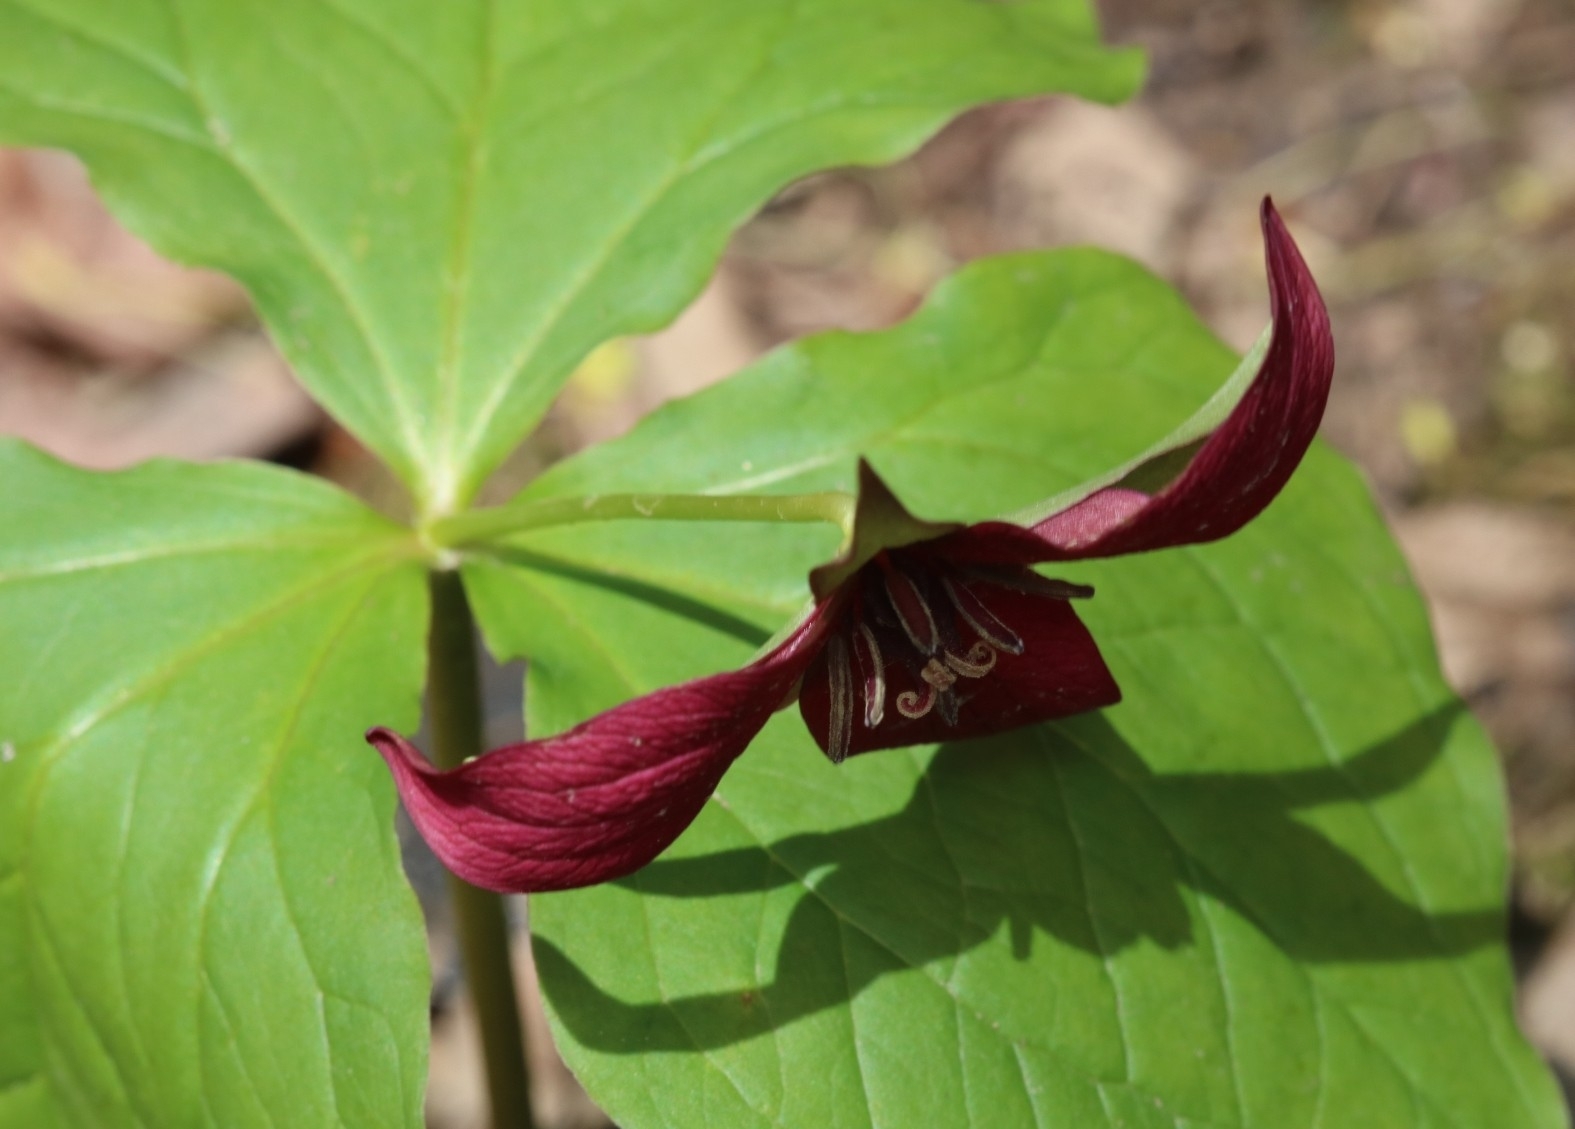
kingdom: Plantae
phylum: Tracheophyta
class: Liliopsida
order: Liliales
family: Melanthiaceae
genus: Trillium
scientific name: Trillium erectum
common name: Purple trillium
